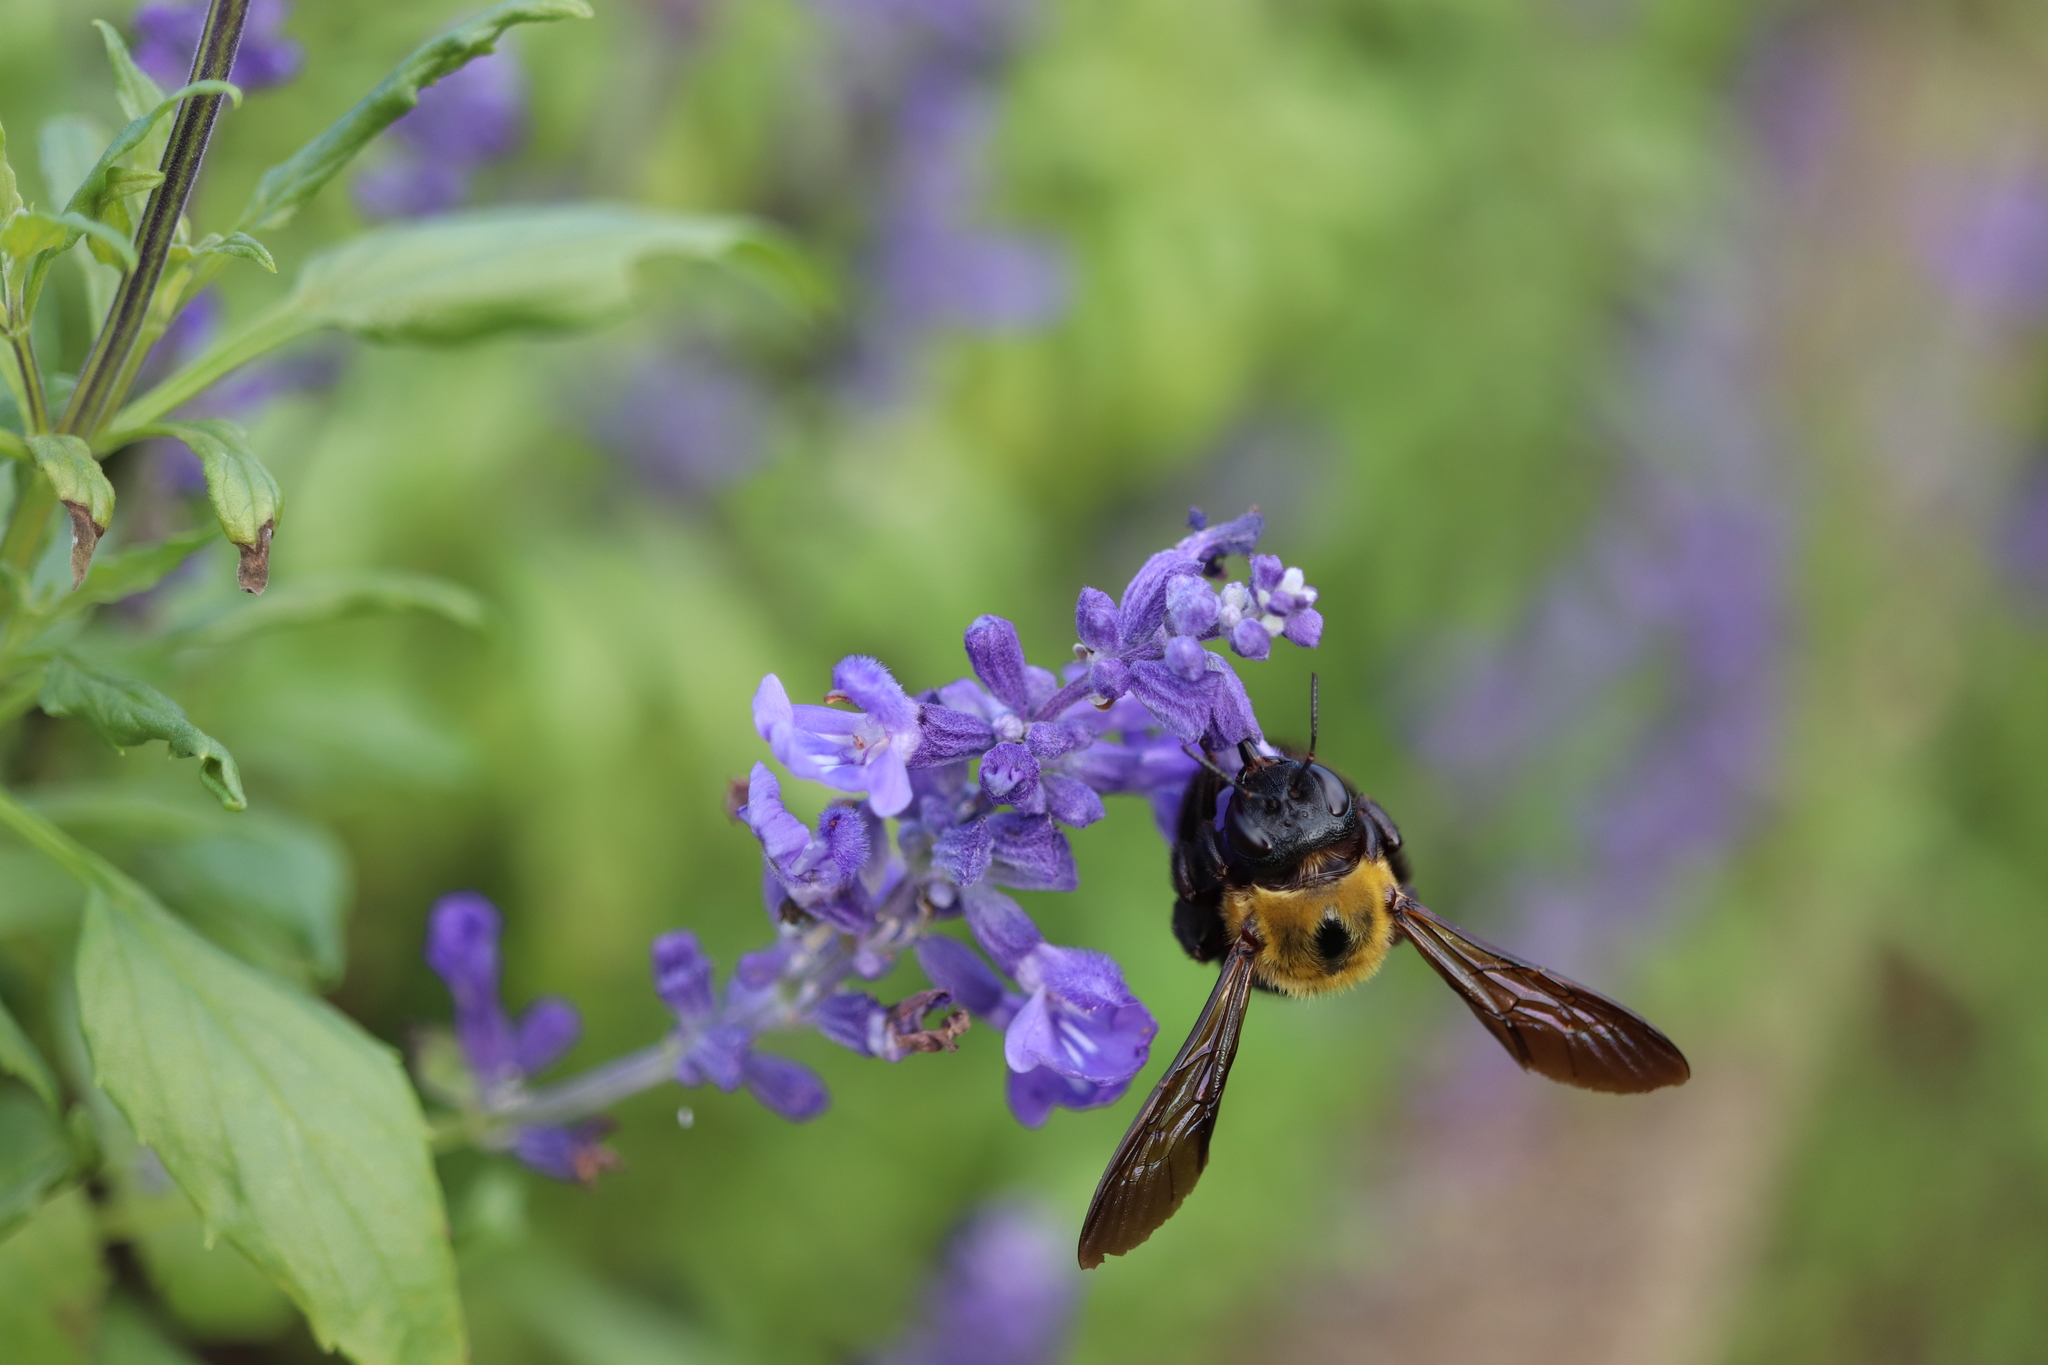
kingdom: Animalia
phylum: Arthropoda
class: Insecta
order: Hymenoptera
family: Apidae
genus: Xylocopa
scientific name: Xylocopa appendiculata
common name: Japanese carpenter bee
